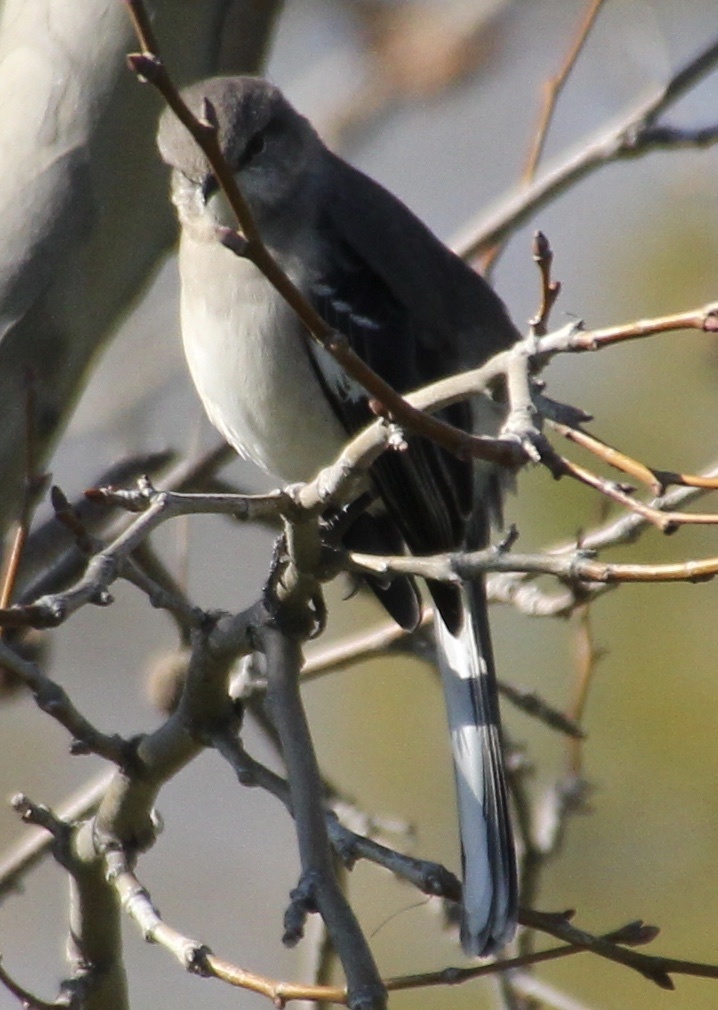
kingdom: Animalia
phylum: Chordata
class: Aves
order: Passeriformes
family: Mimidae
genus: Mimus
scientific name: Mimus polyglottos
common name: Northern mockingbird
